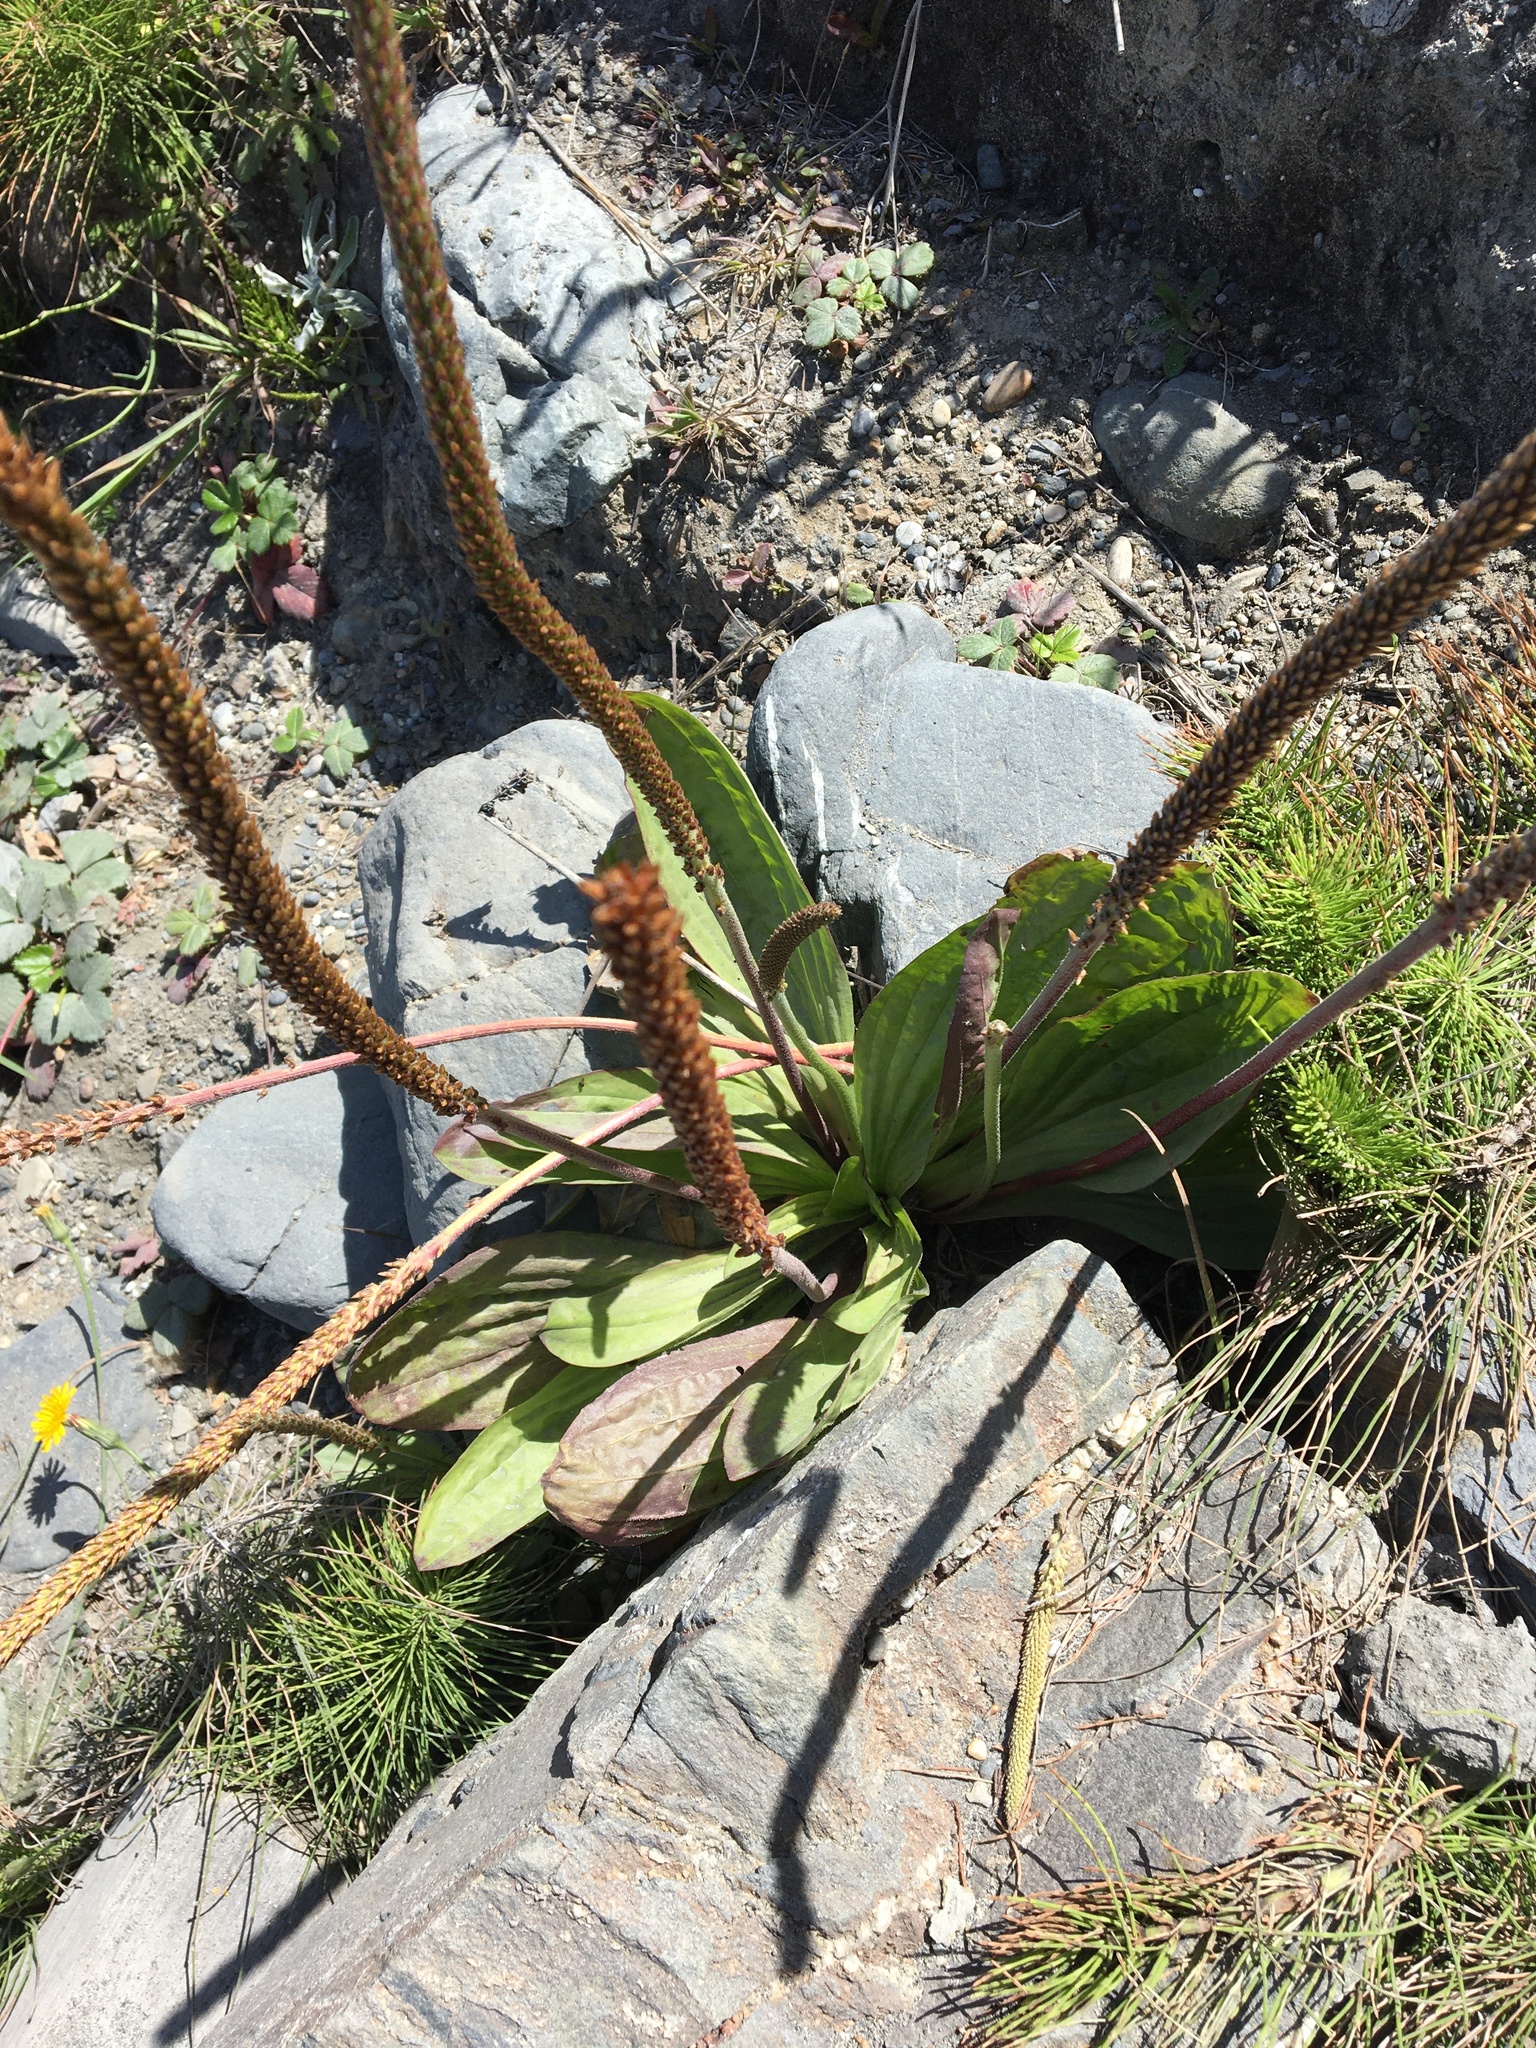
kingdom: Plantae
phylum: Tracheophyta
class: Magnoliopsida
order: Lamiales
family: Plantaginaceae
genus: Plantago
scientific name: Plantago subnuda
